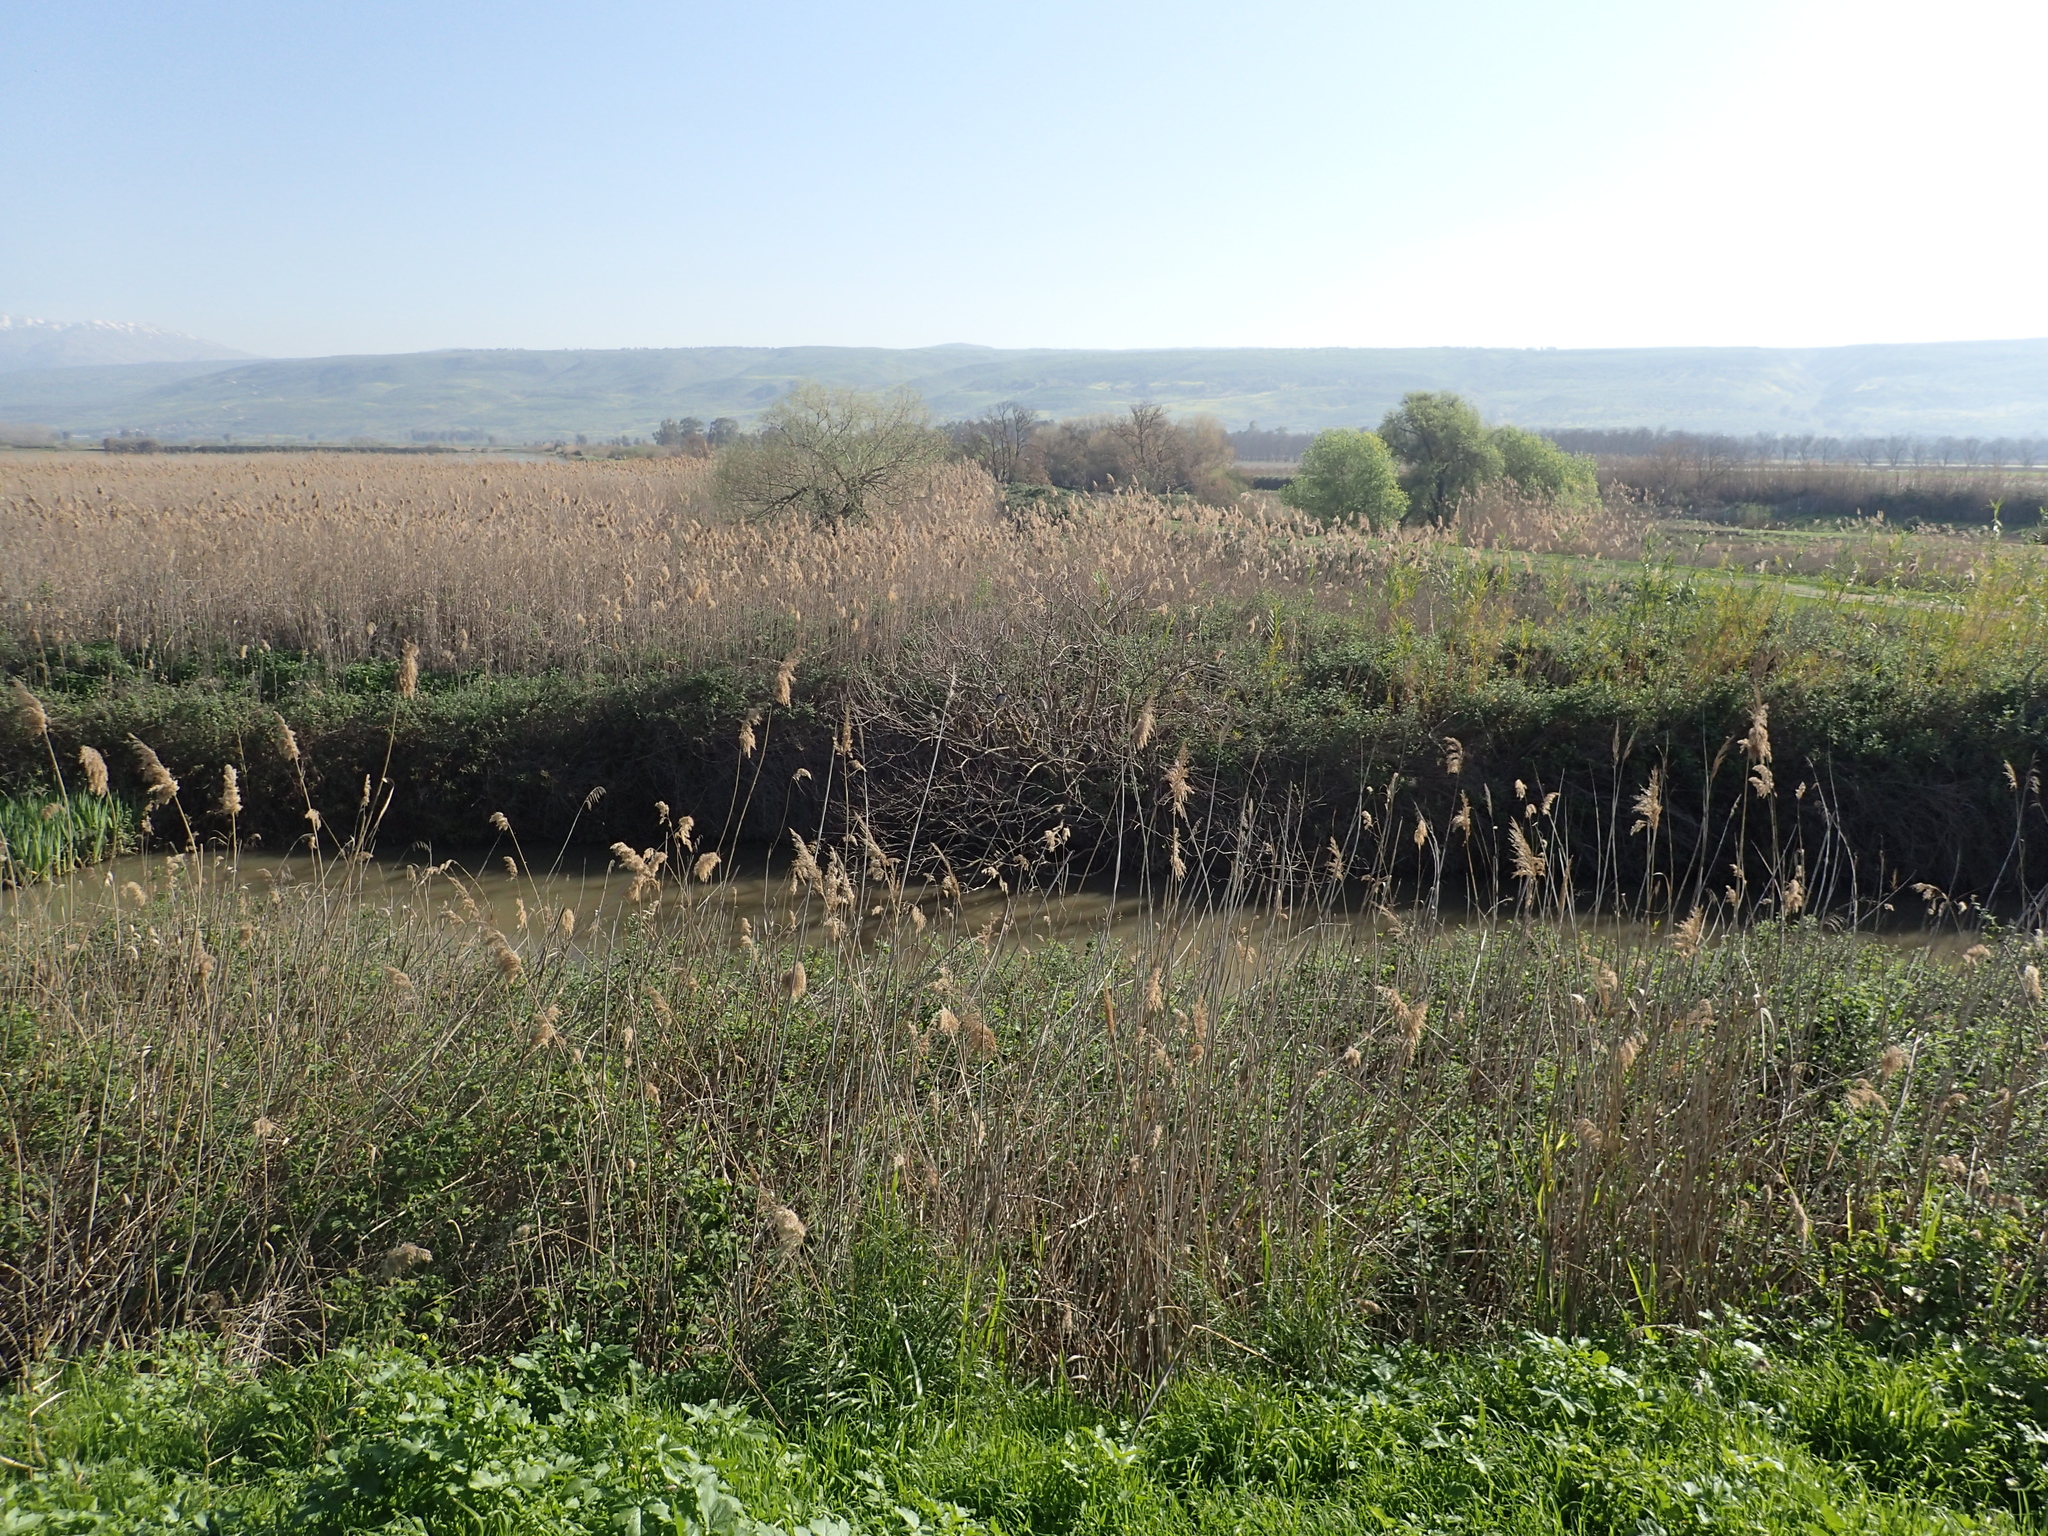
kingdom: Animalia
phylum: Chordata
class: Aves
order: Pelecaniformes
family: Ardeidae
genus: Nycticorax
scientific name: Nycticorax nycticorax
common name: Black-crowned night heron
